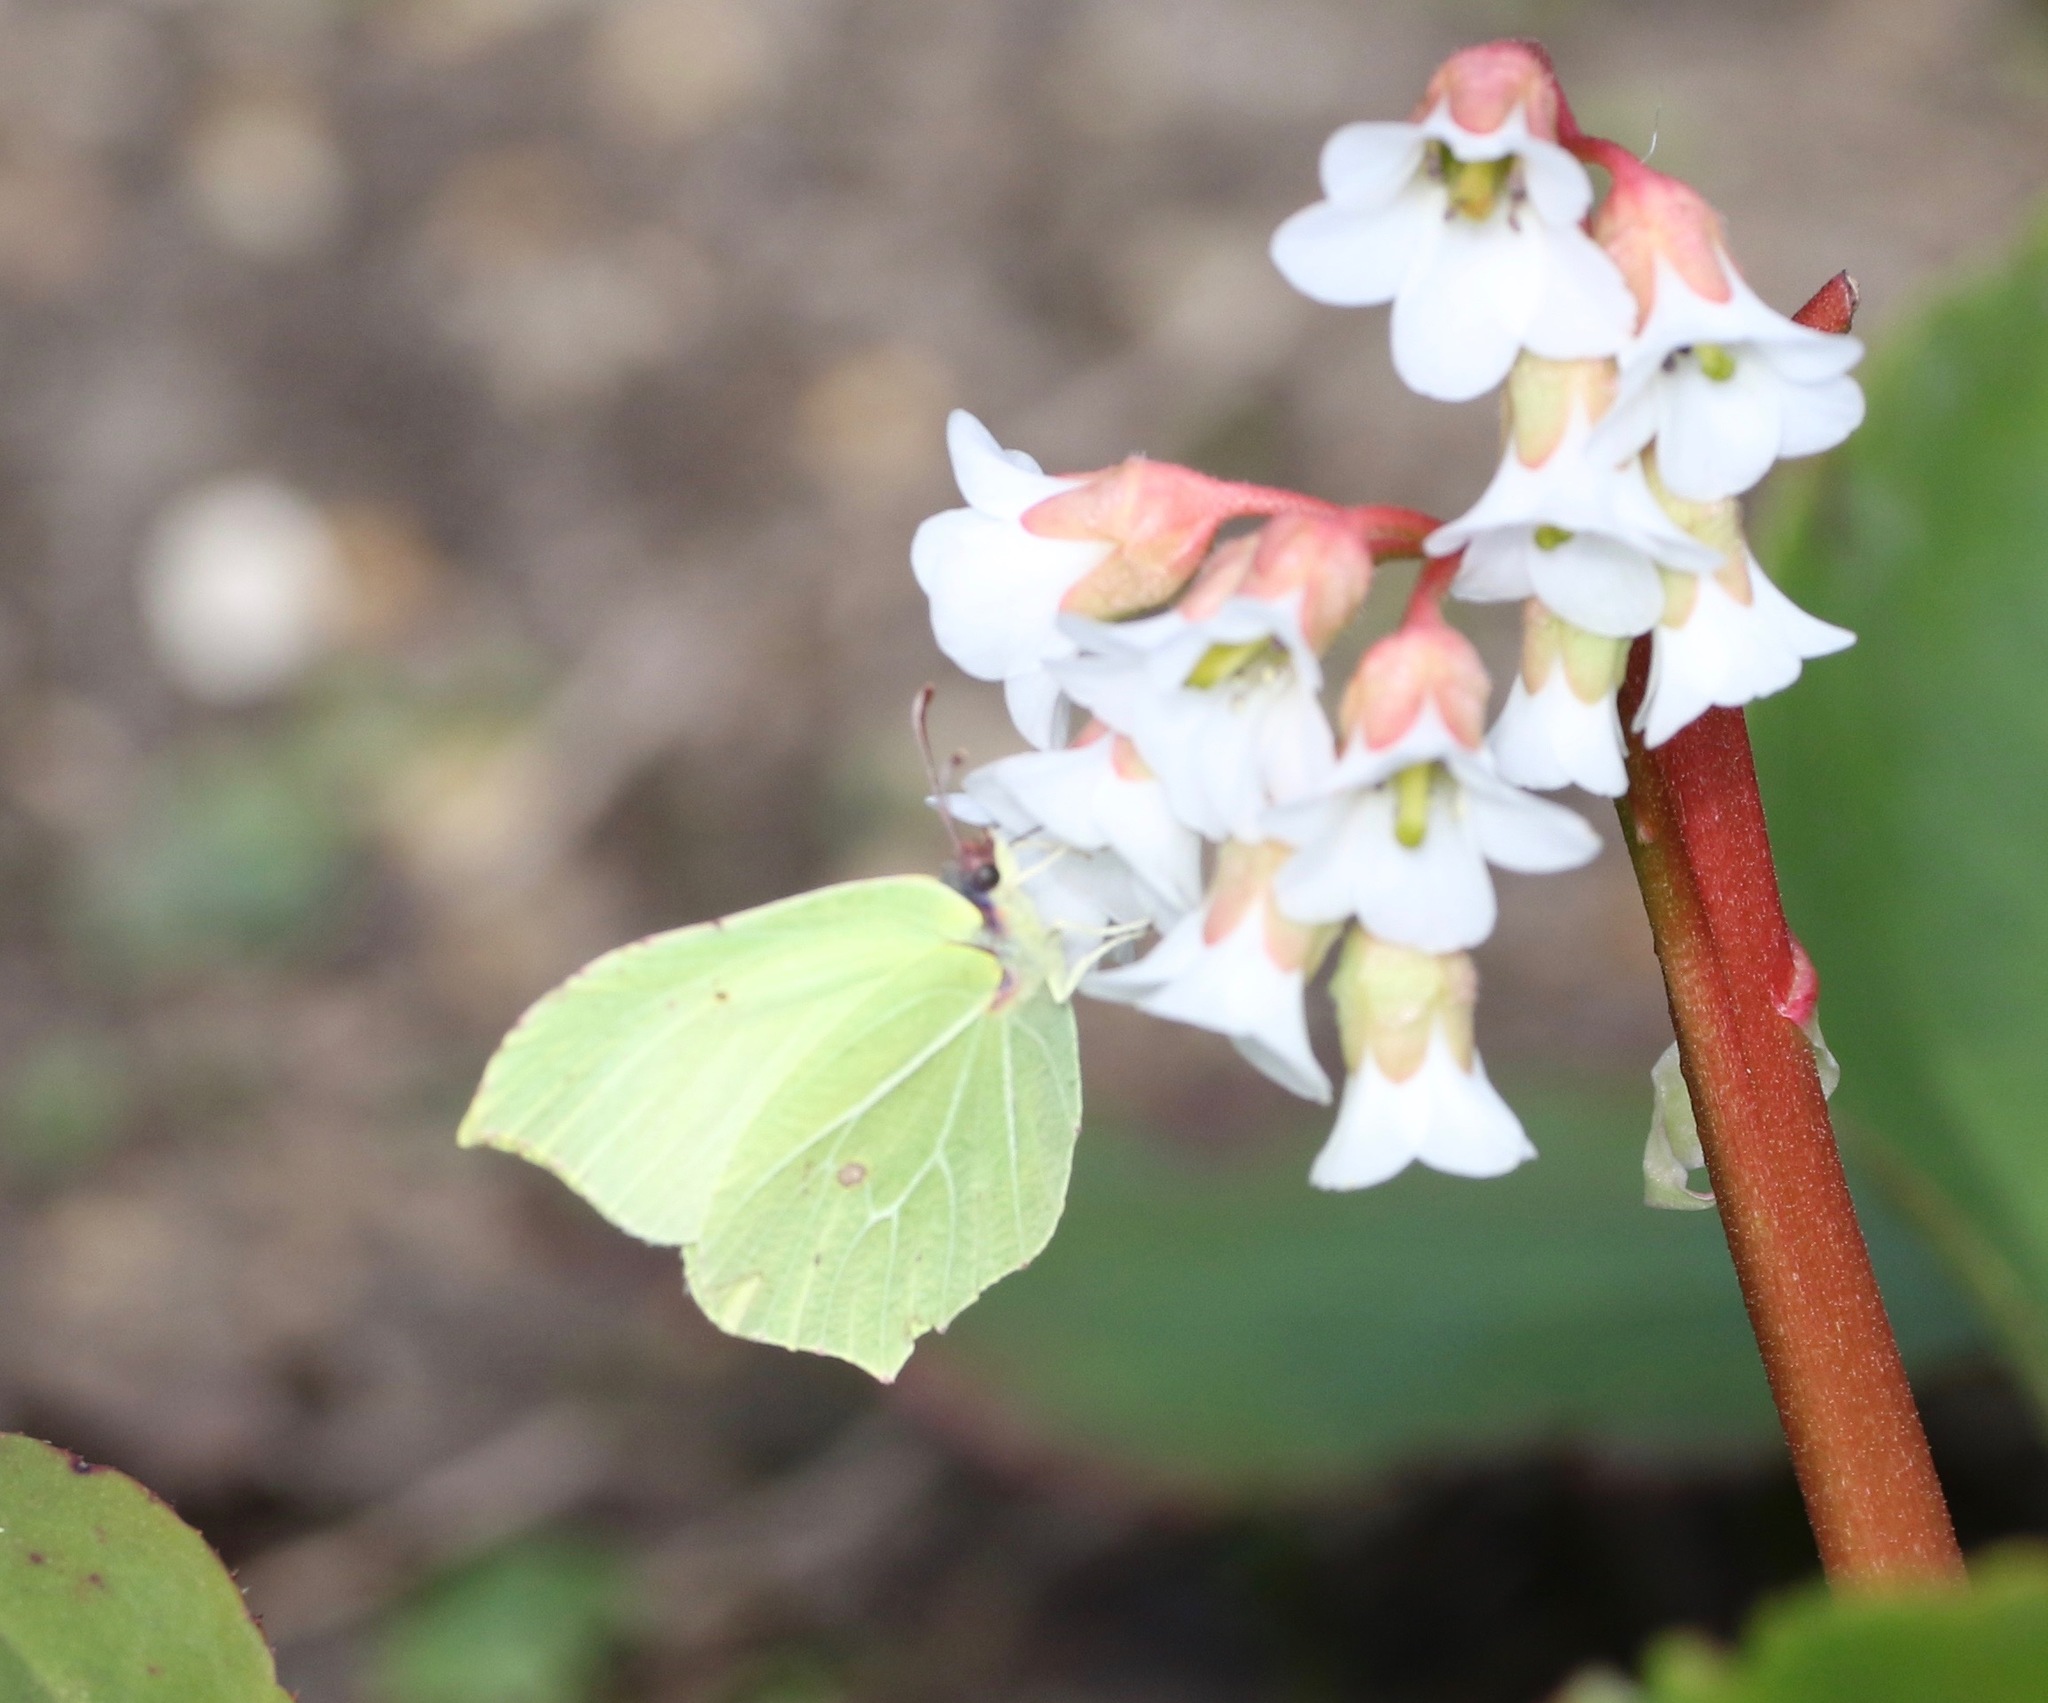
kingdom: Animalia
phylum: Arthropoda
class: Insecta
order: Lepidoptera
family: Pieridae
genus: Gonepteryx
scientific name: Gonepteryx rhamni
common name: Brimstone
